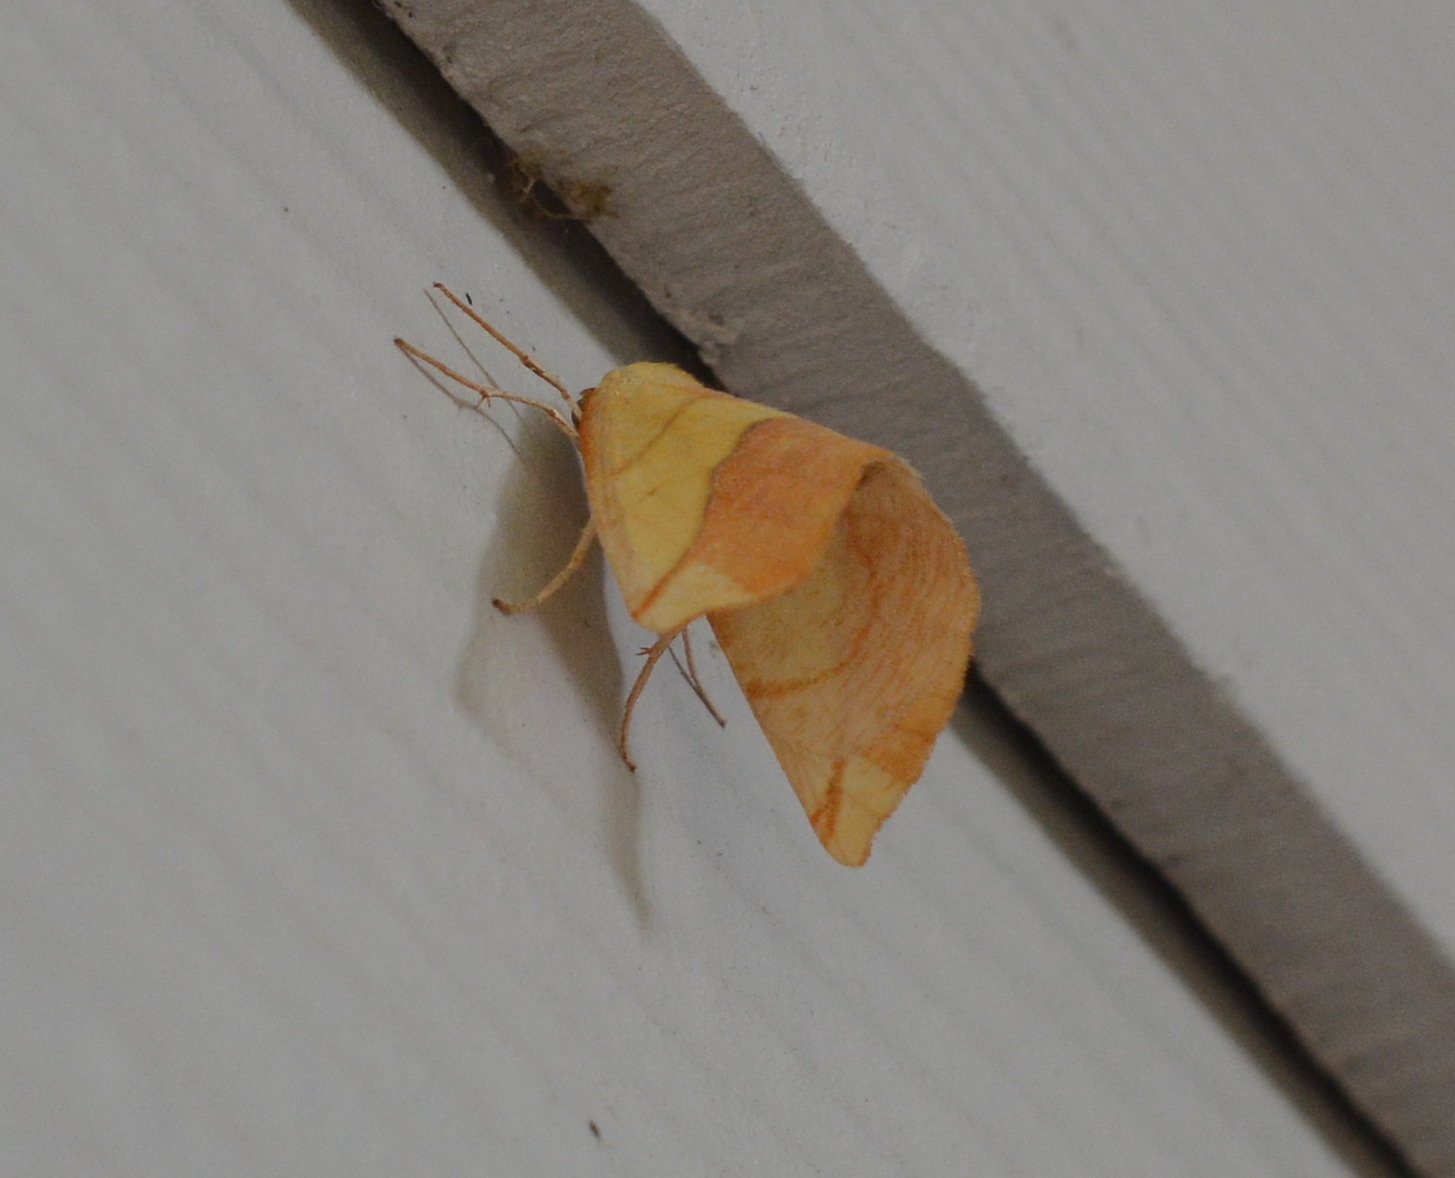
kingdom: Animalia
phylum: Arthropoda
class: Insecta
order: Lepidoptera
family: Geometridae
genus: Sicya
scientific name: Sicya macularia
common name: Sharp-lined yellow
